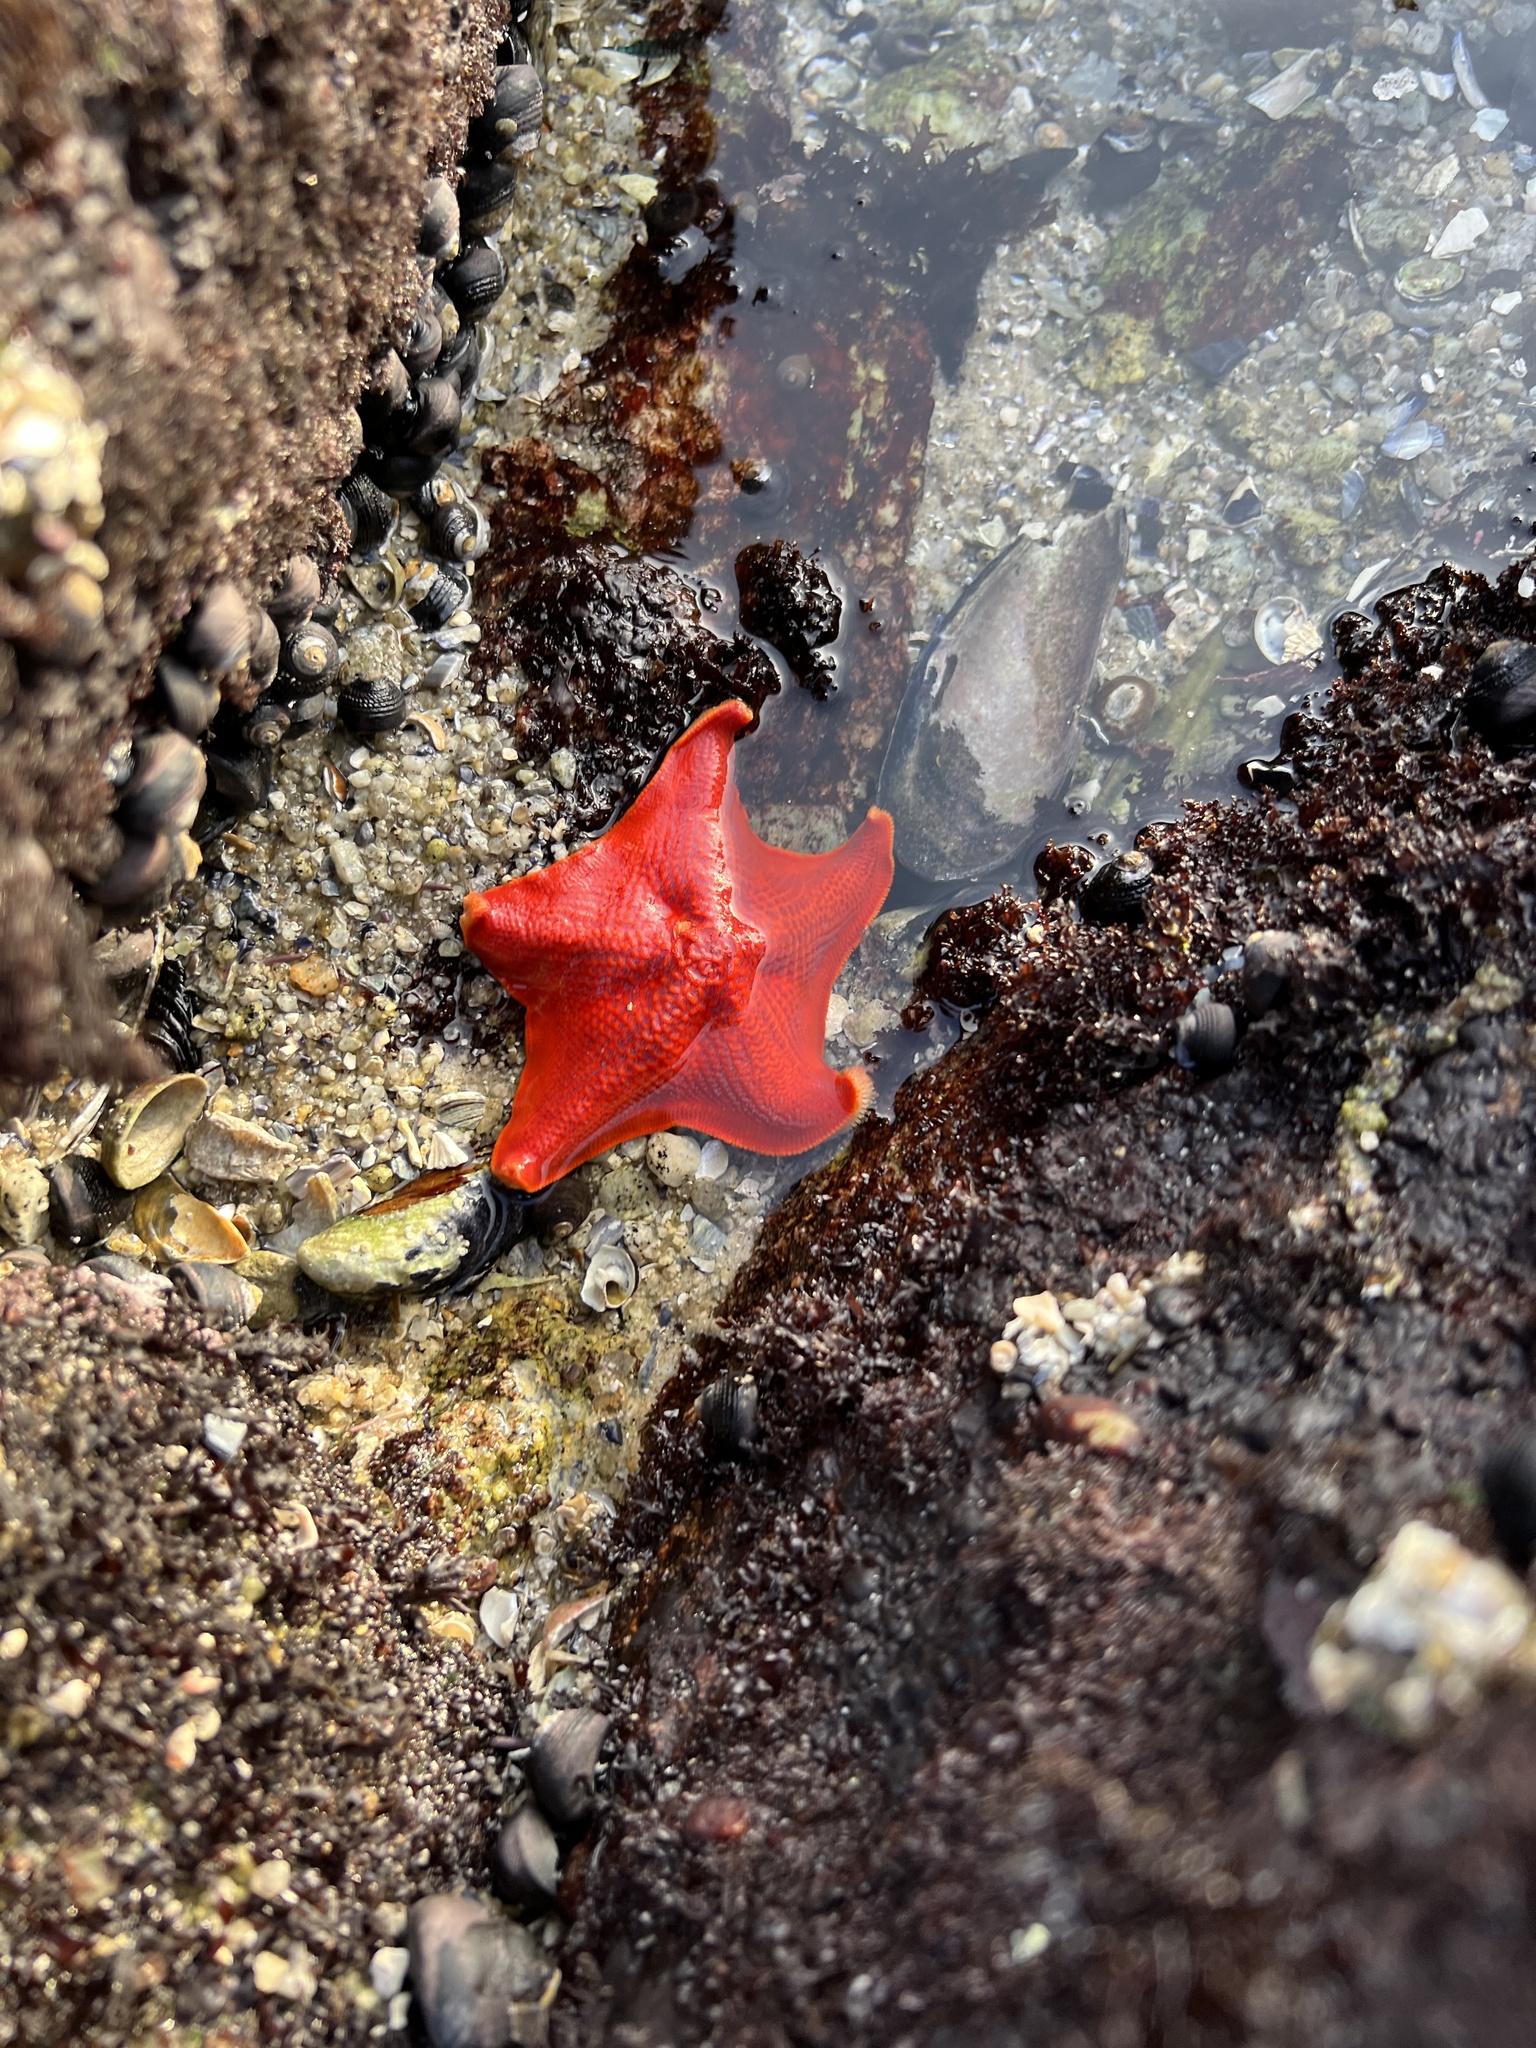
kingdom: Animalia
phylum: Echinodermata
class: Asteroidea
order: Valvatida
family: Asterinidae
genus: Patiria
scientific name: Patiria miniata
